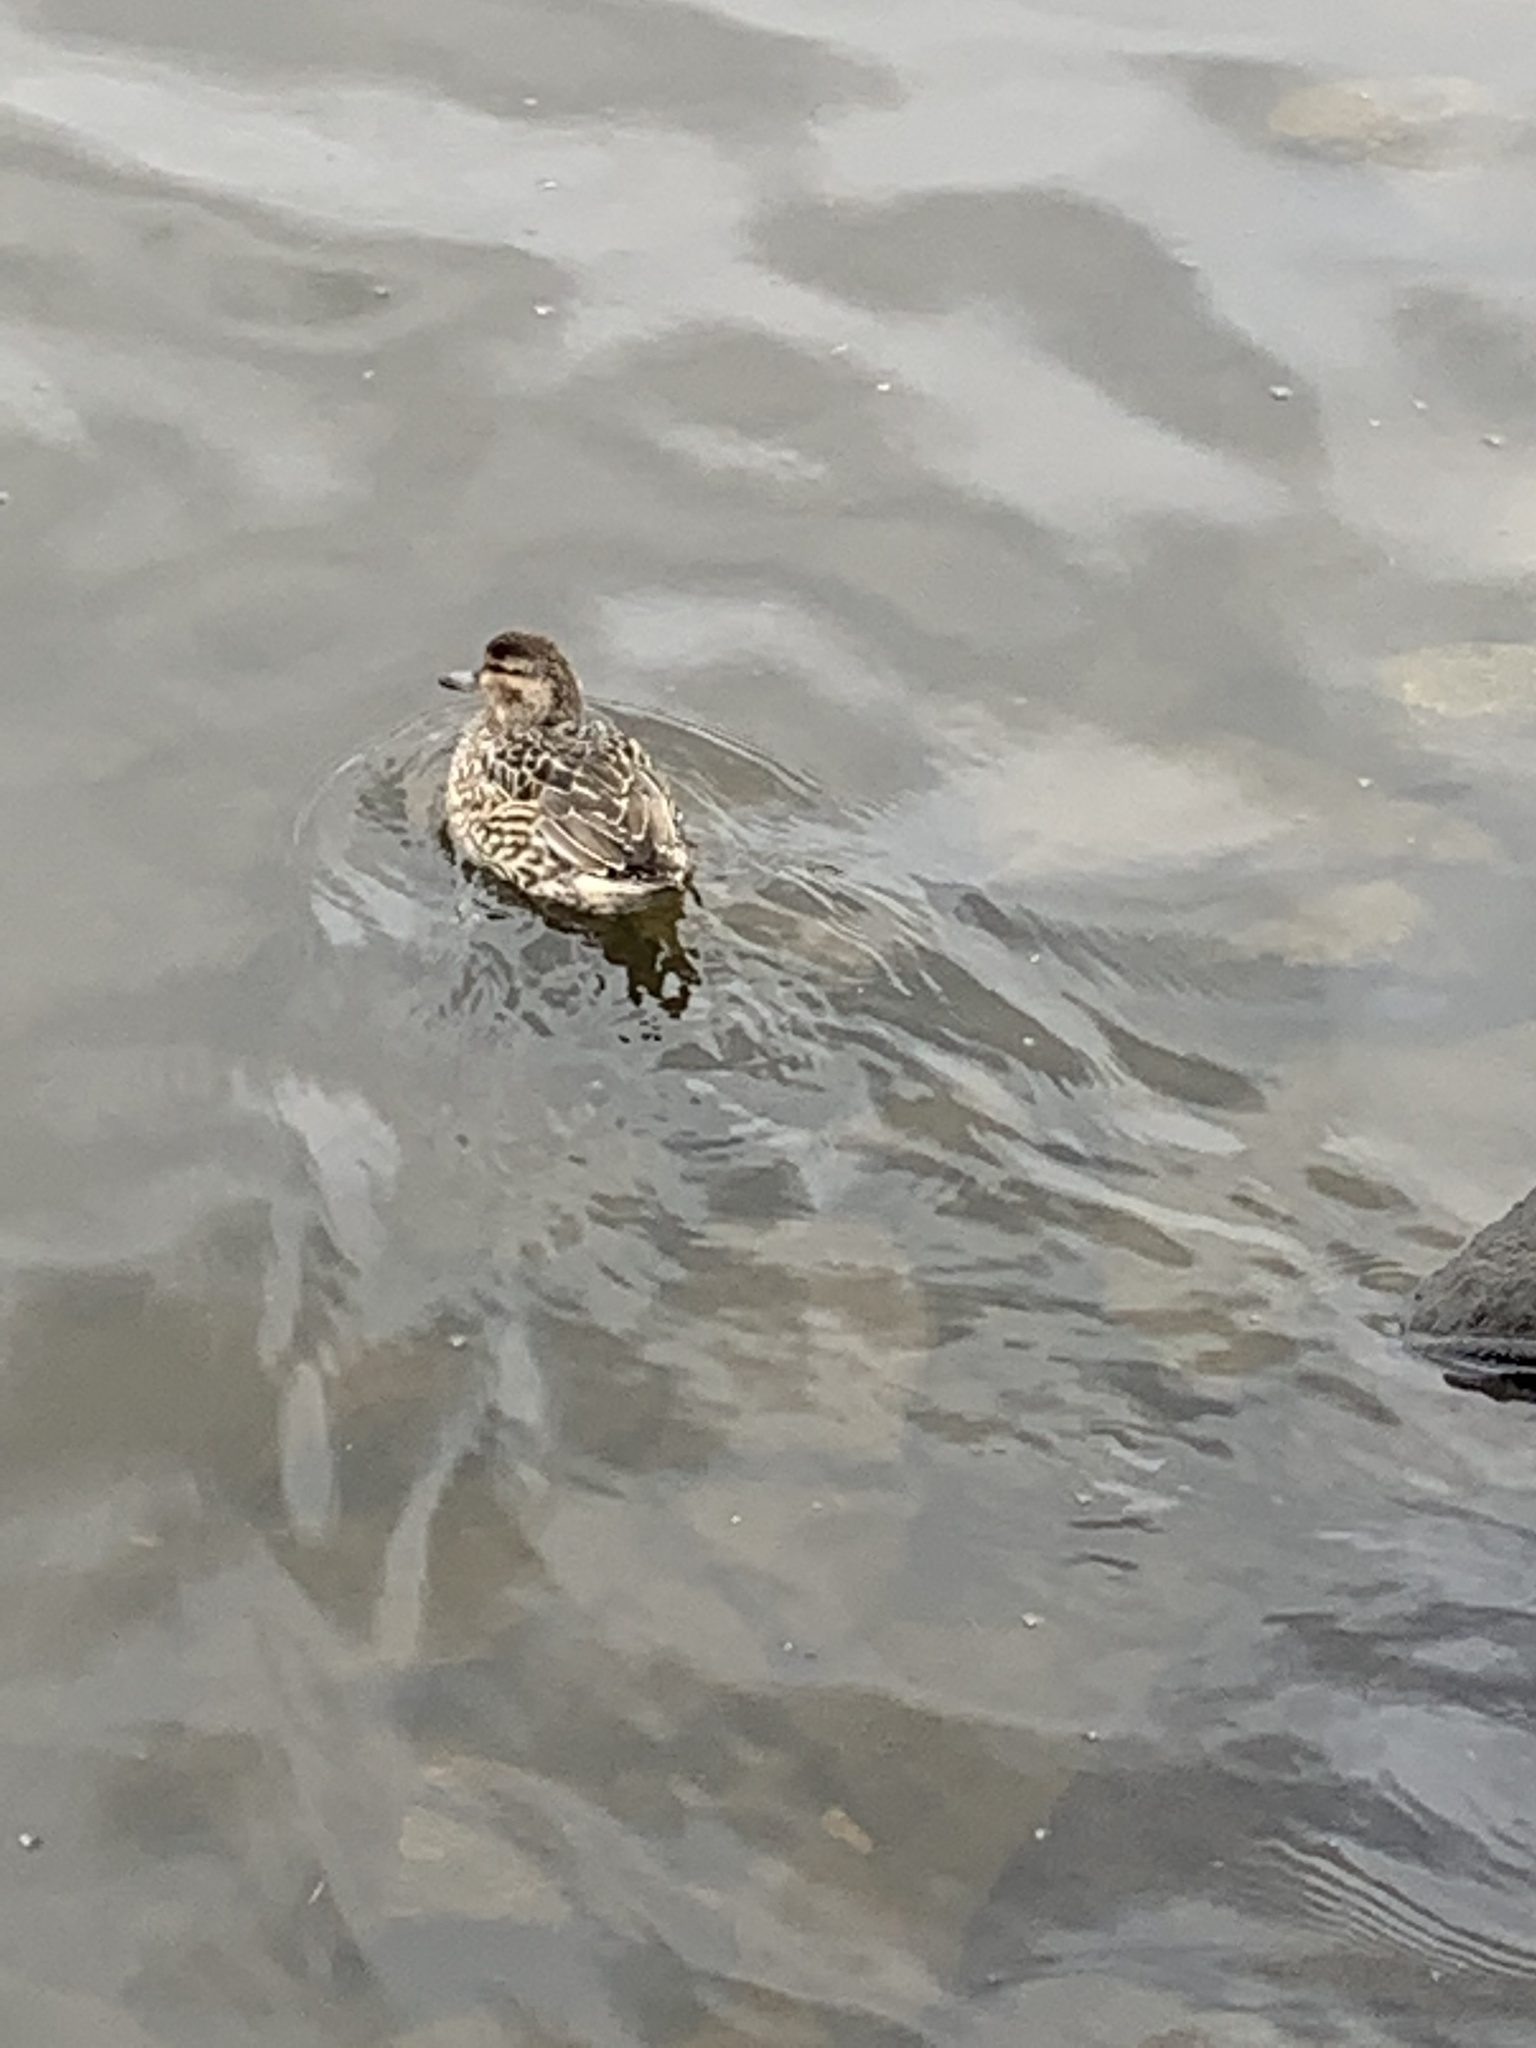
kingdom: Animalia
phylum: Chordata
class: Aves
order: Anseriformes
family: Anatidae
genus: Anas
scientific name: Anas crecca
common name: Eurasian teal
